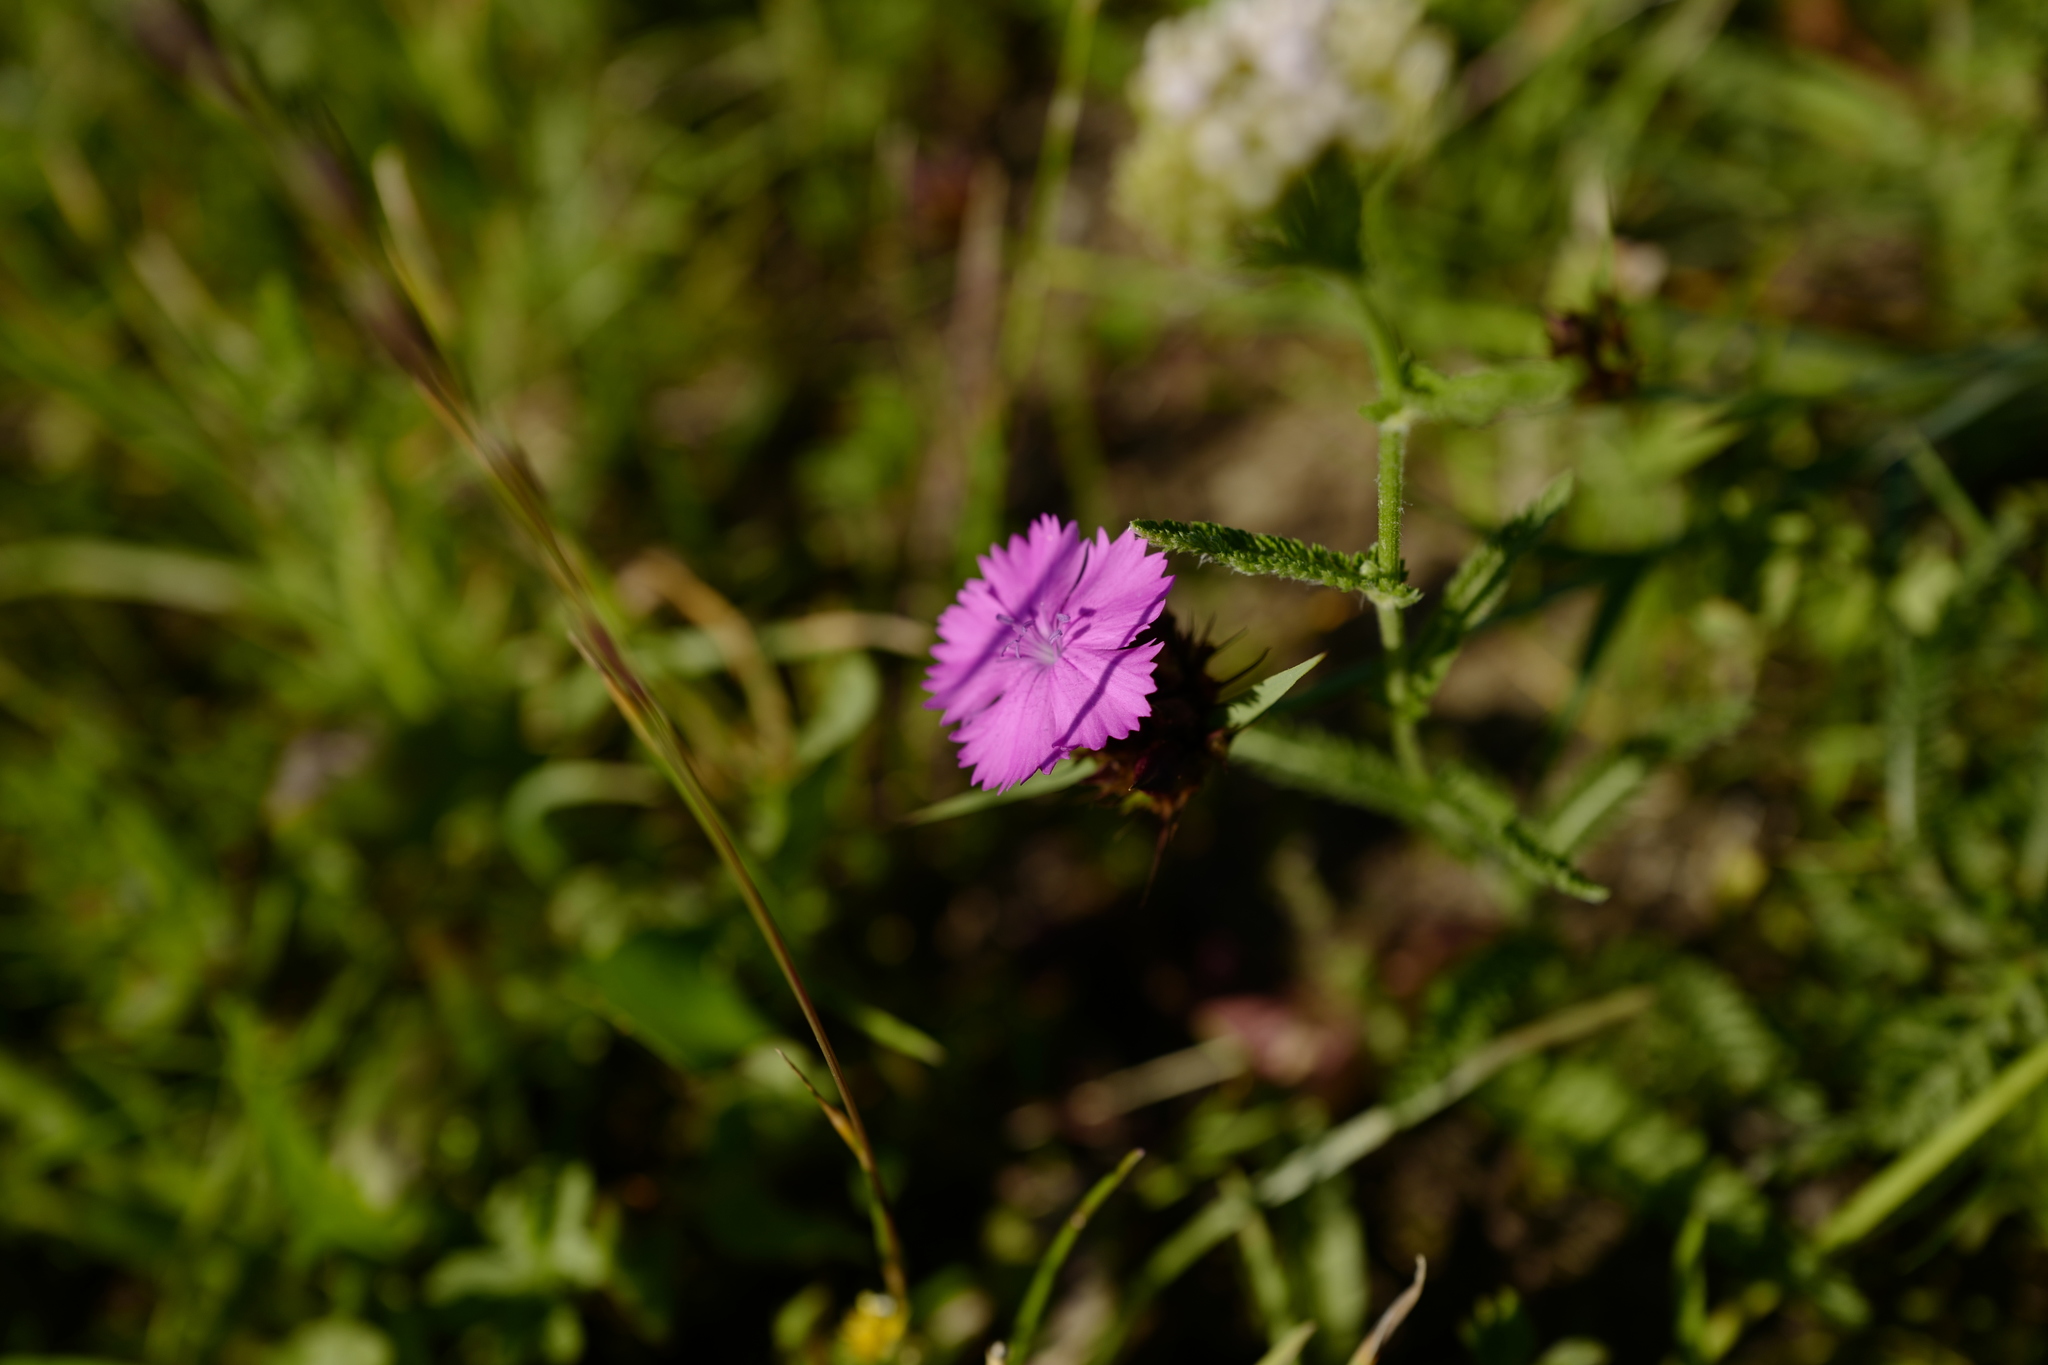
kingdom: Plantae
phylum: Tracheophyta
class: Magnoliopsida
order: Caryophyllales
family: Caryophyllaceae
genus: Dianthus
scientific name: Dianthus carthusianorum
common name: Carthusian pink
